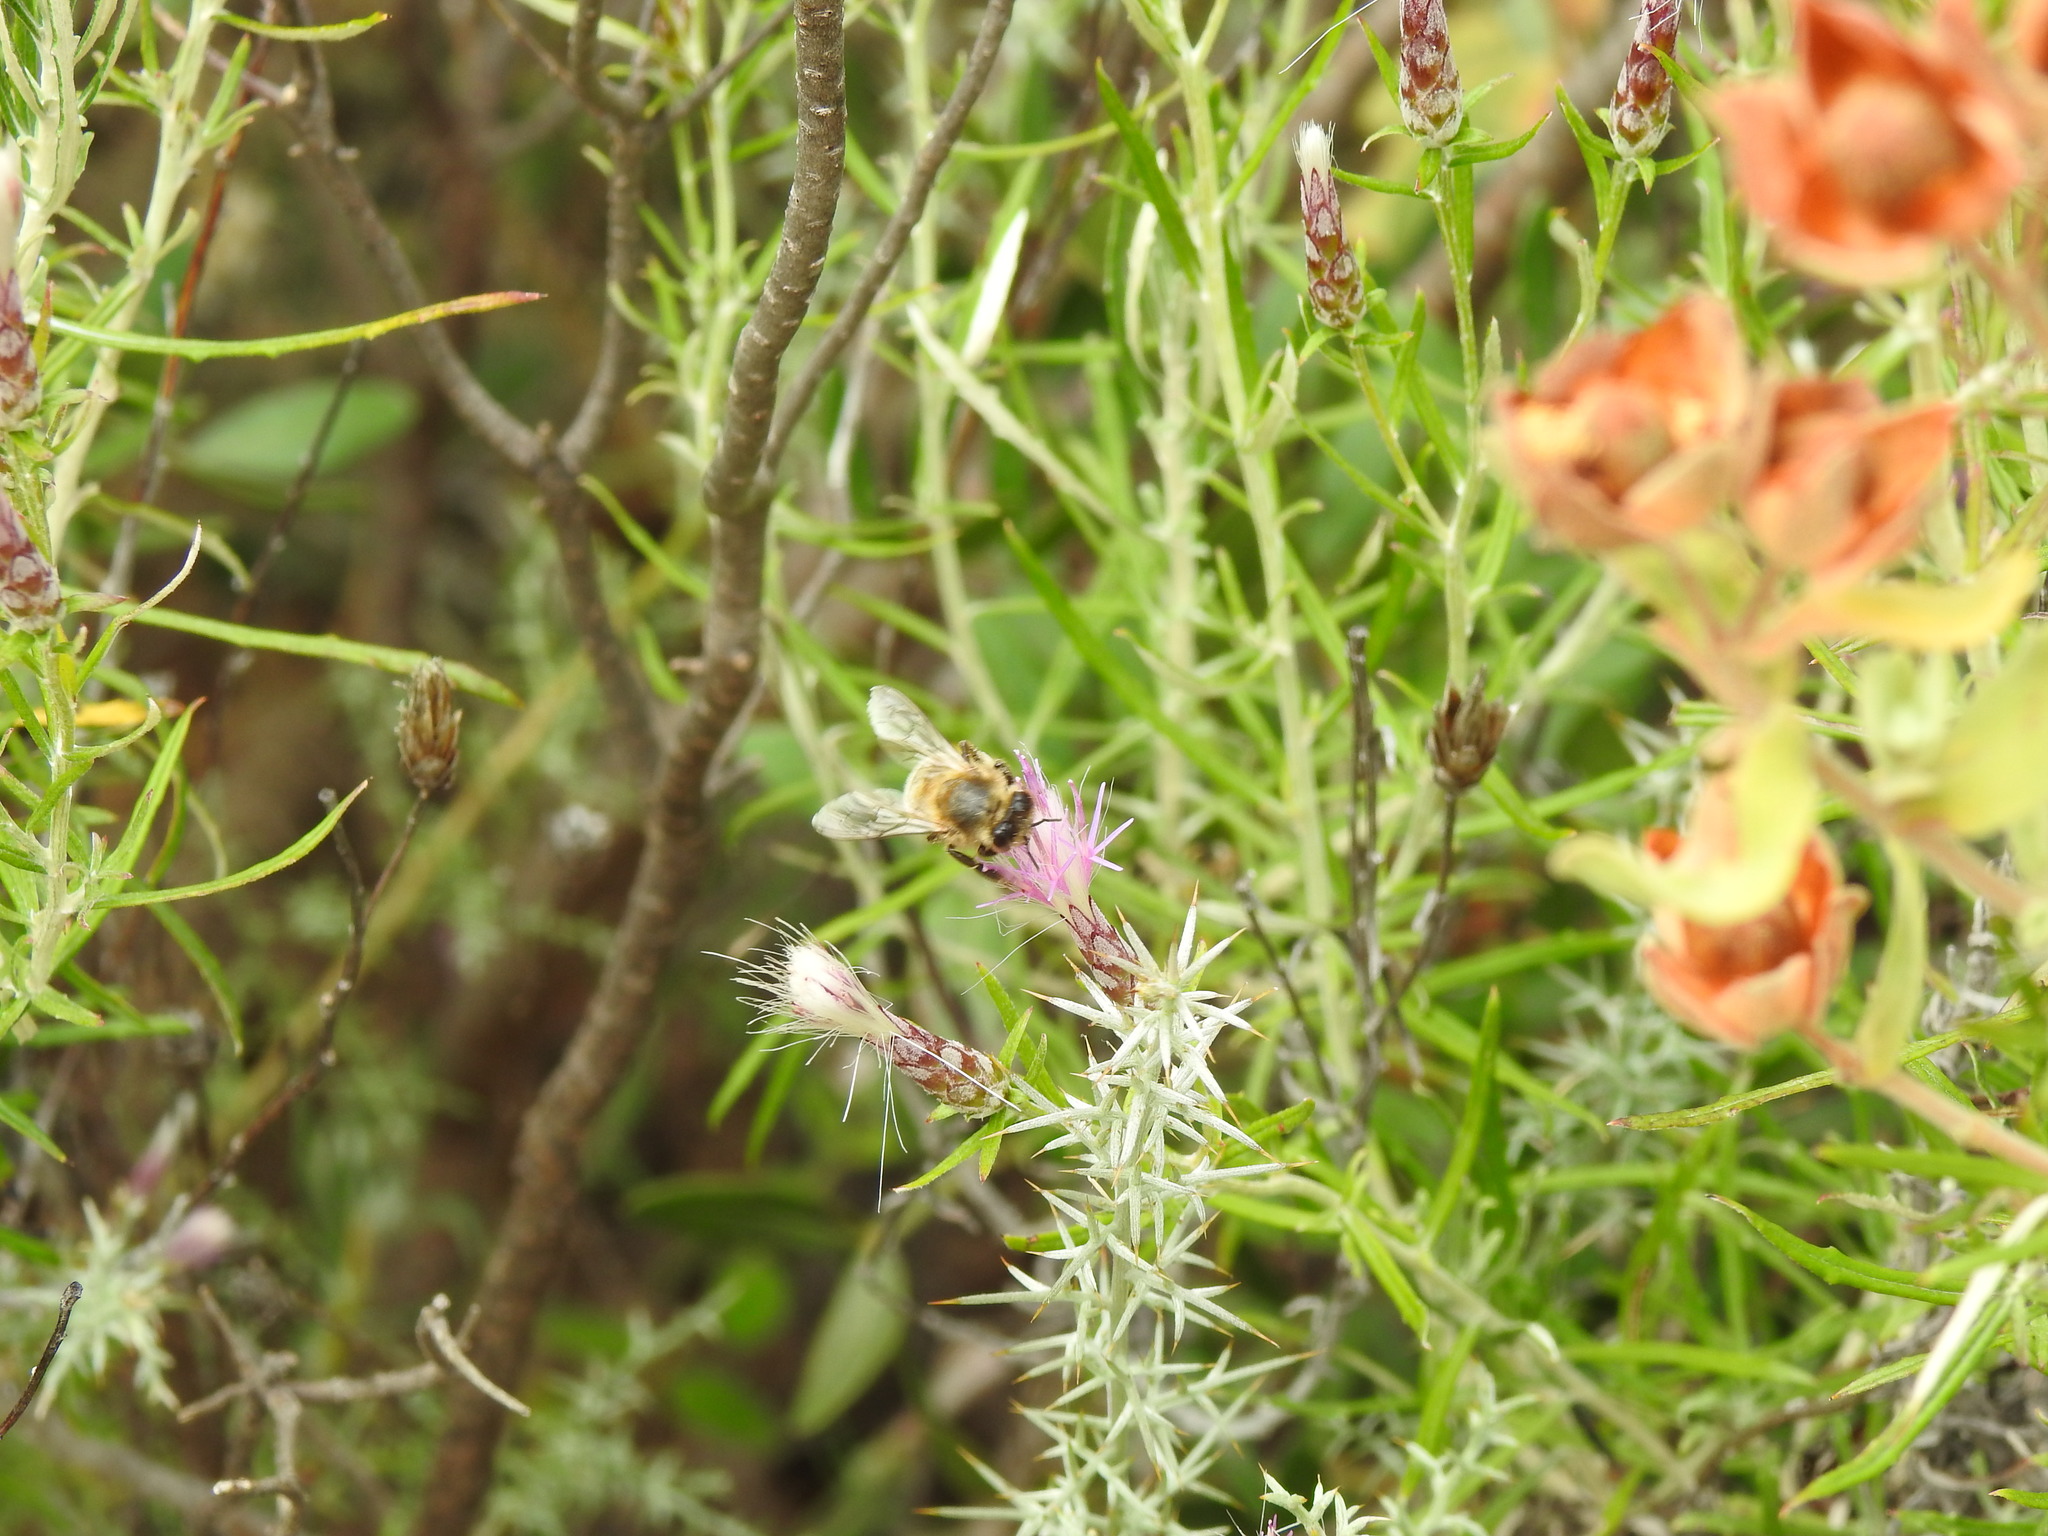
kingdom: Animalia
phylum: Arthropoda
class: Insecta
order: Hymenoptera
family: Apidae
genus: Apis
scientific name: Apis mellifera
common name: Honey bee
